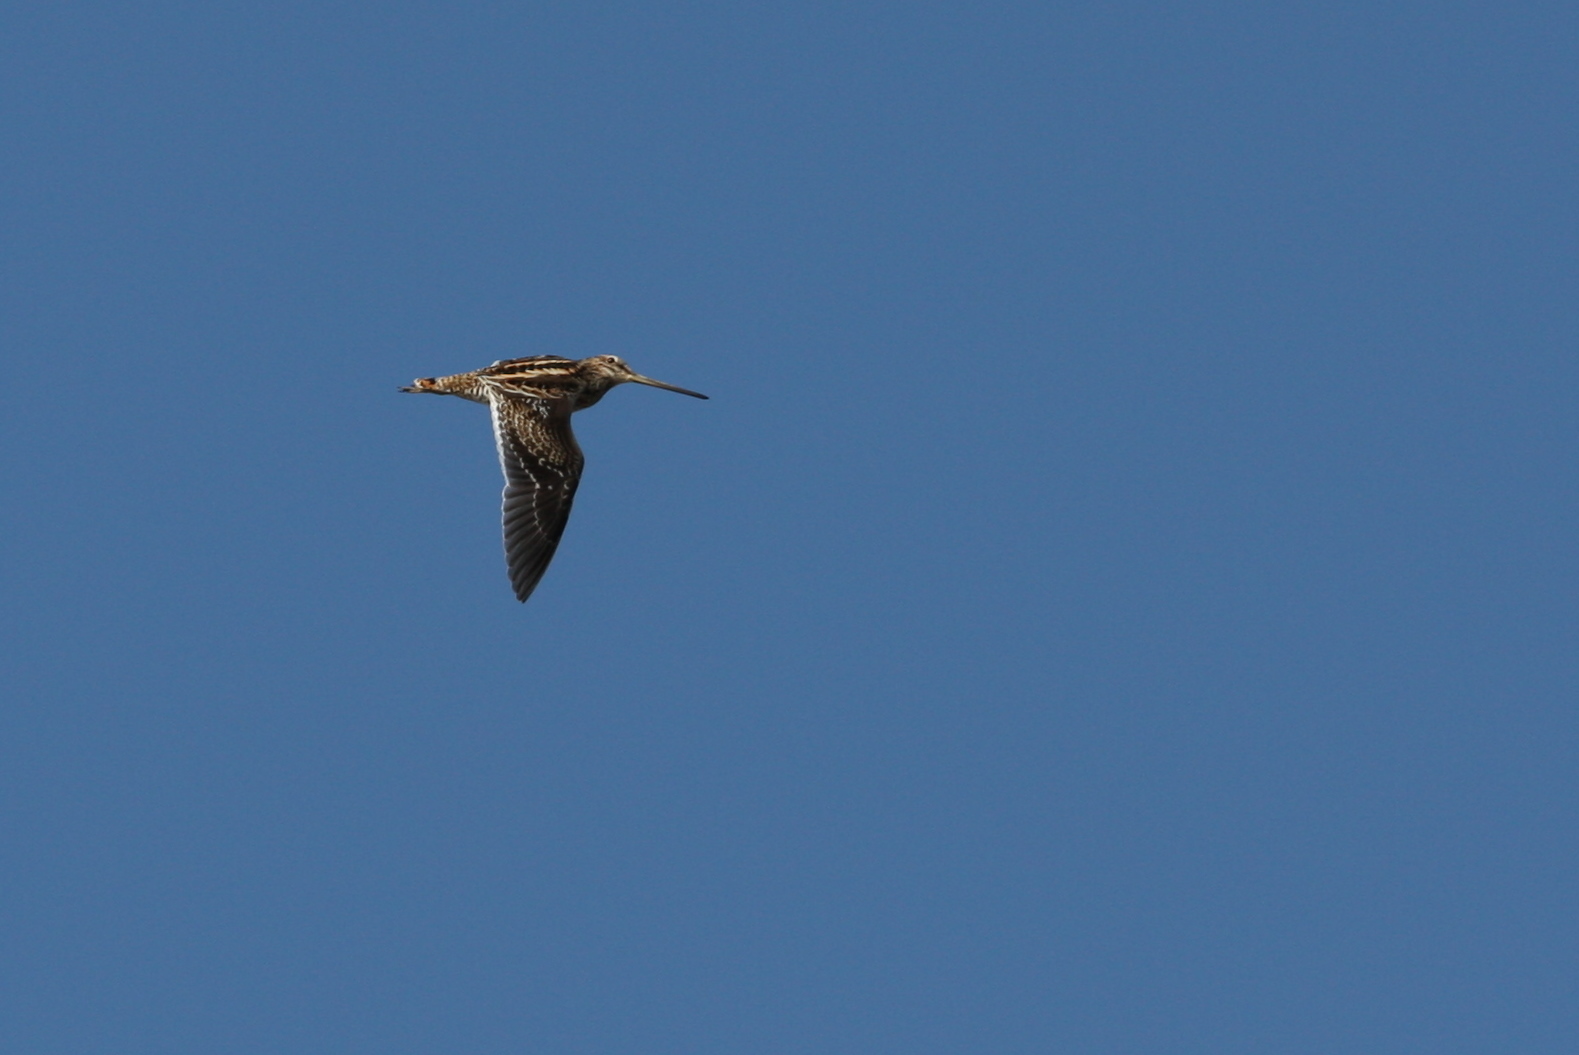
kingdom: Animalia
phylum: Chordata
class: Aves
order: Charadriiformes
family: Scolopacidae
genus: Gallinago
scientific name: Gallinago gallinago
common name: Common snipe
